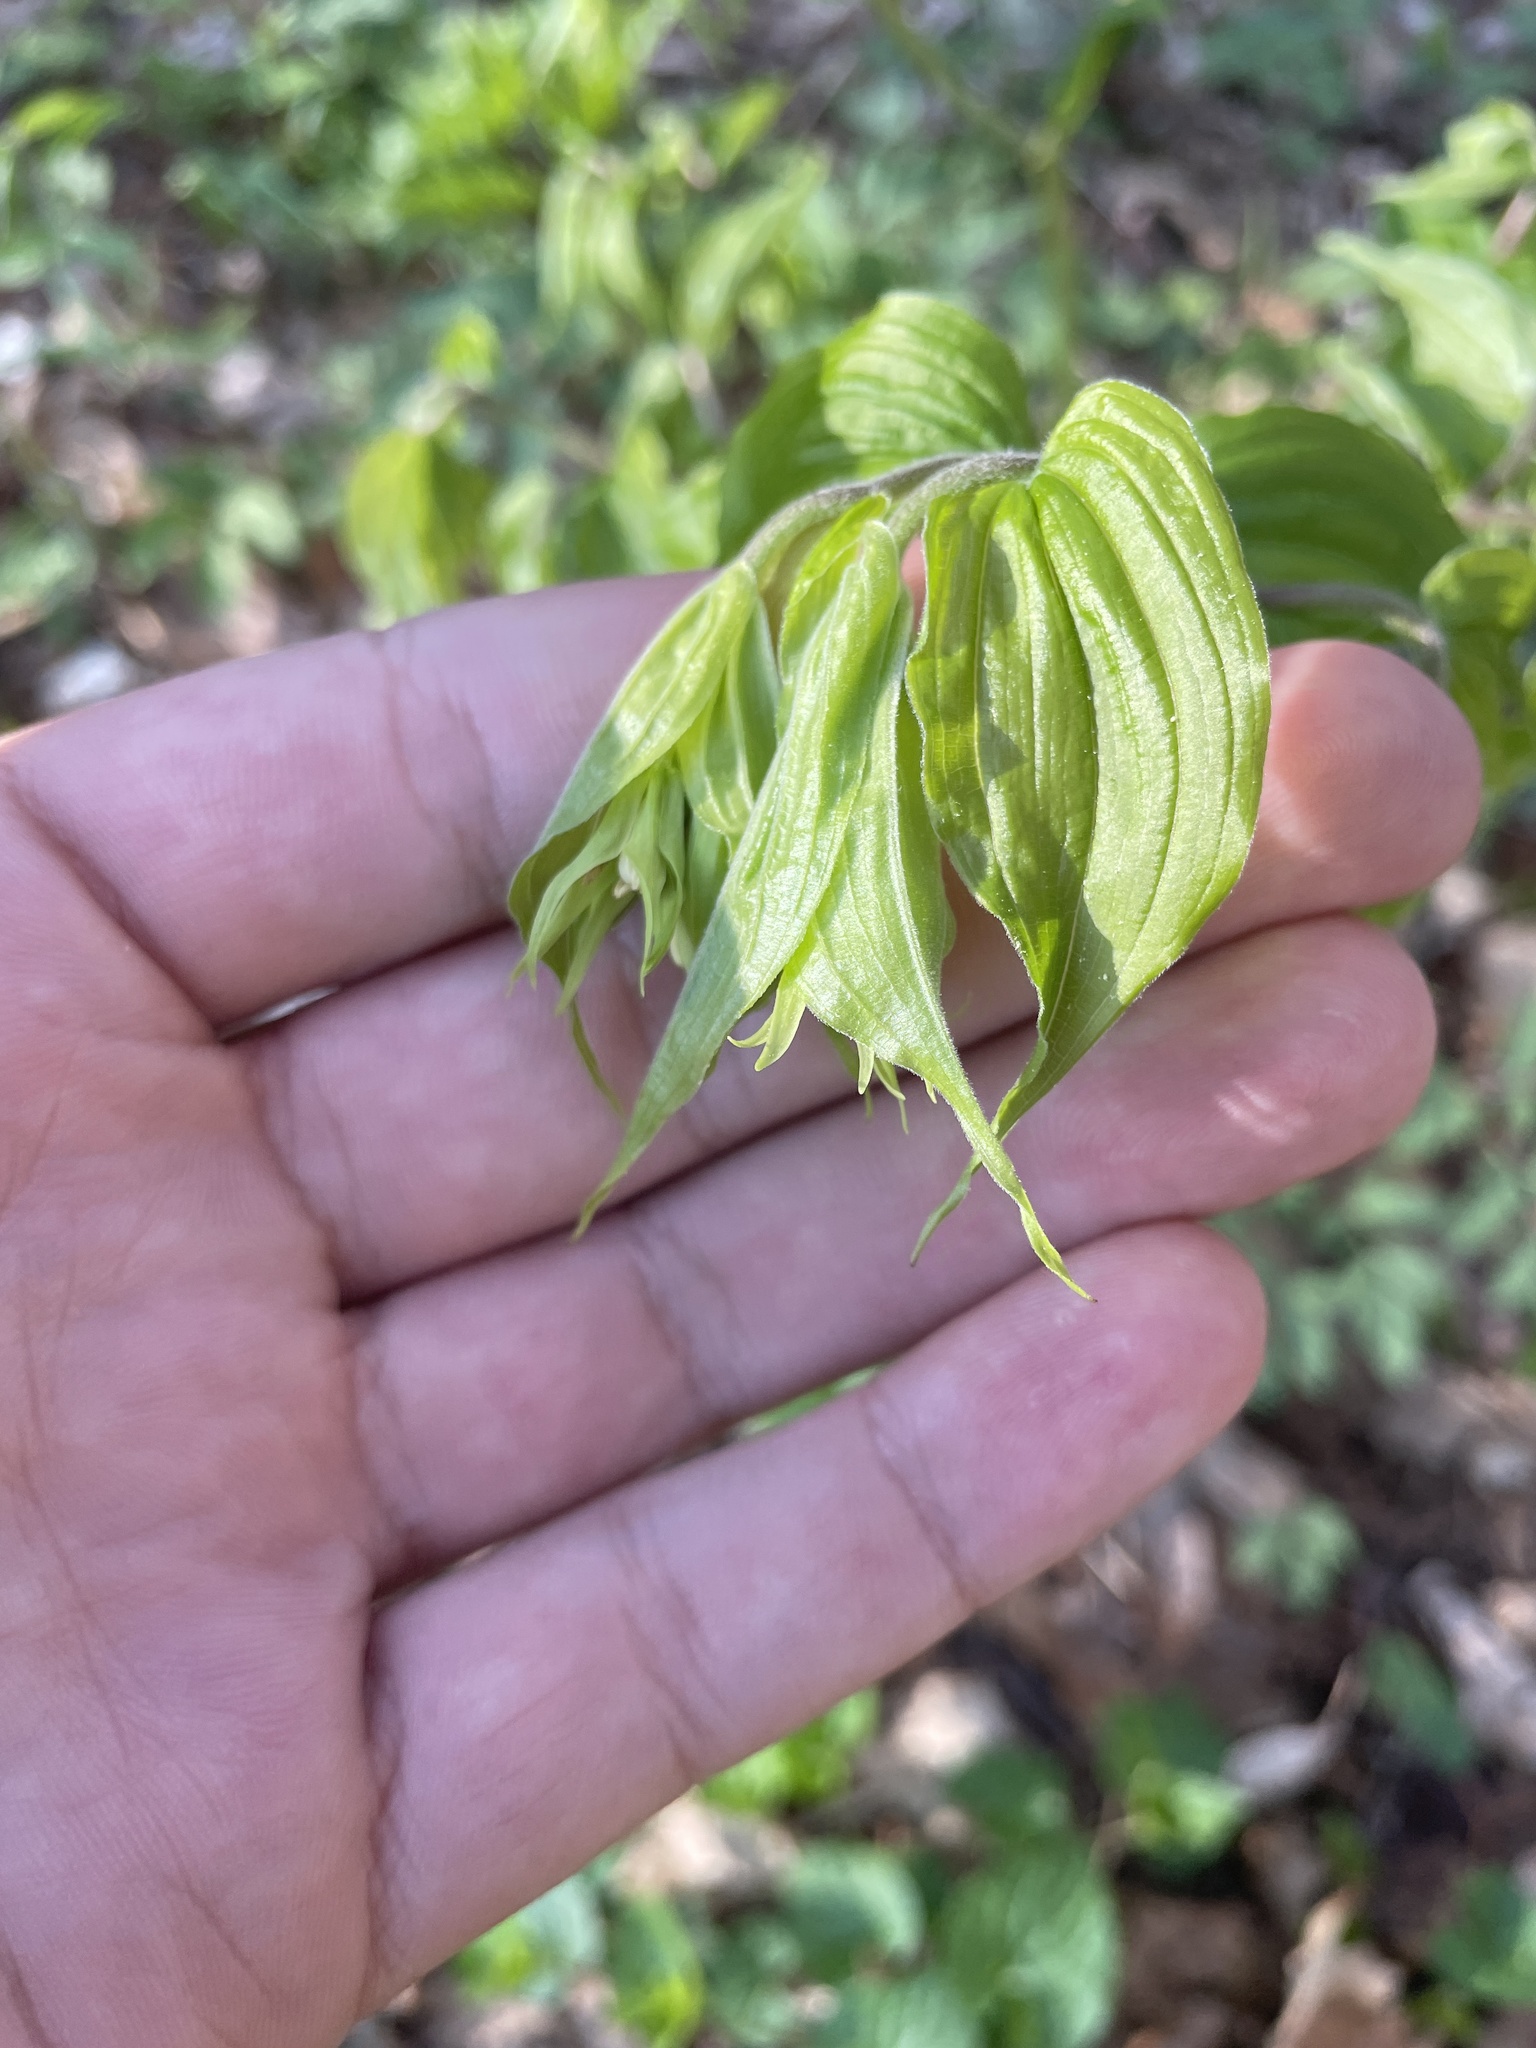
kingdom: Plantae
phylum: Tracheophyta
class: Liliopsida
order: Liliales
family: Liliaceae
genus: Prosartes
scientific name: Prosartes lanuginosa
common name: Hairy mandarin
